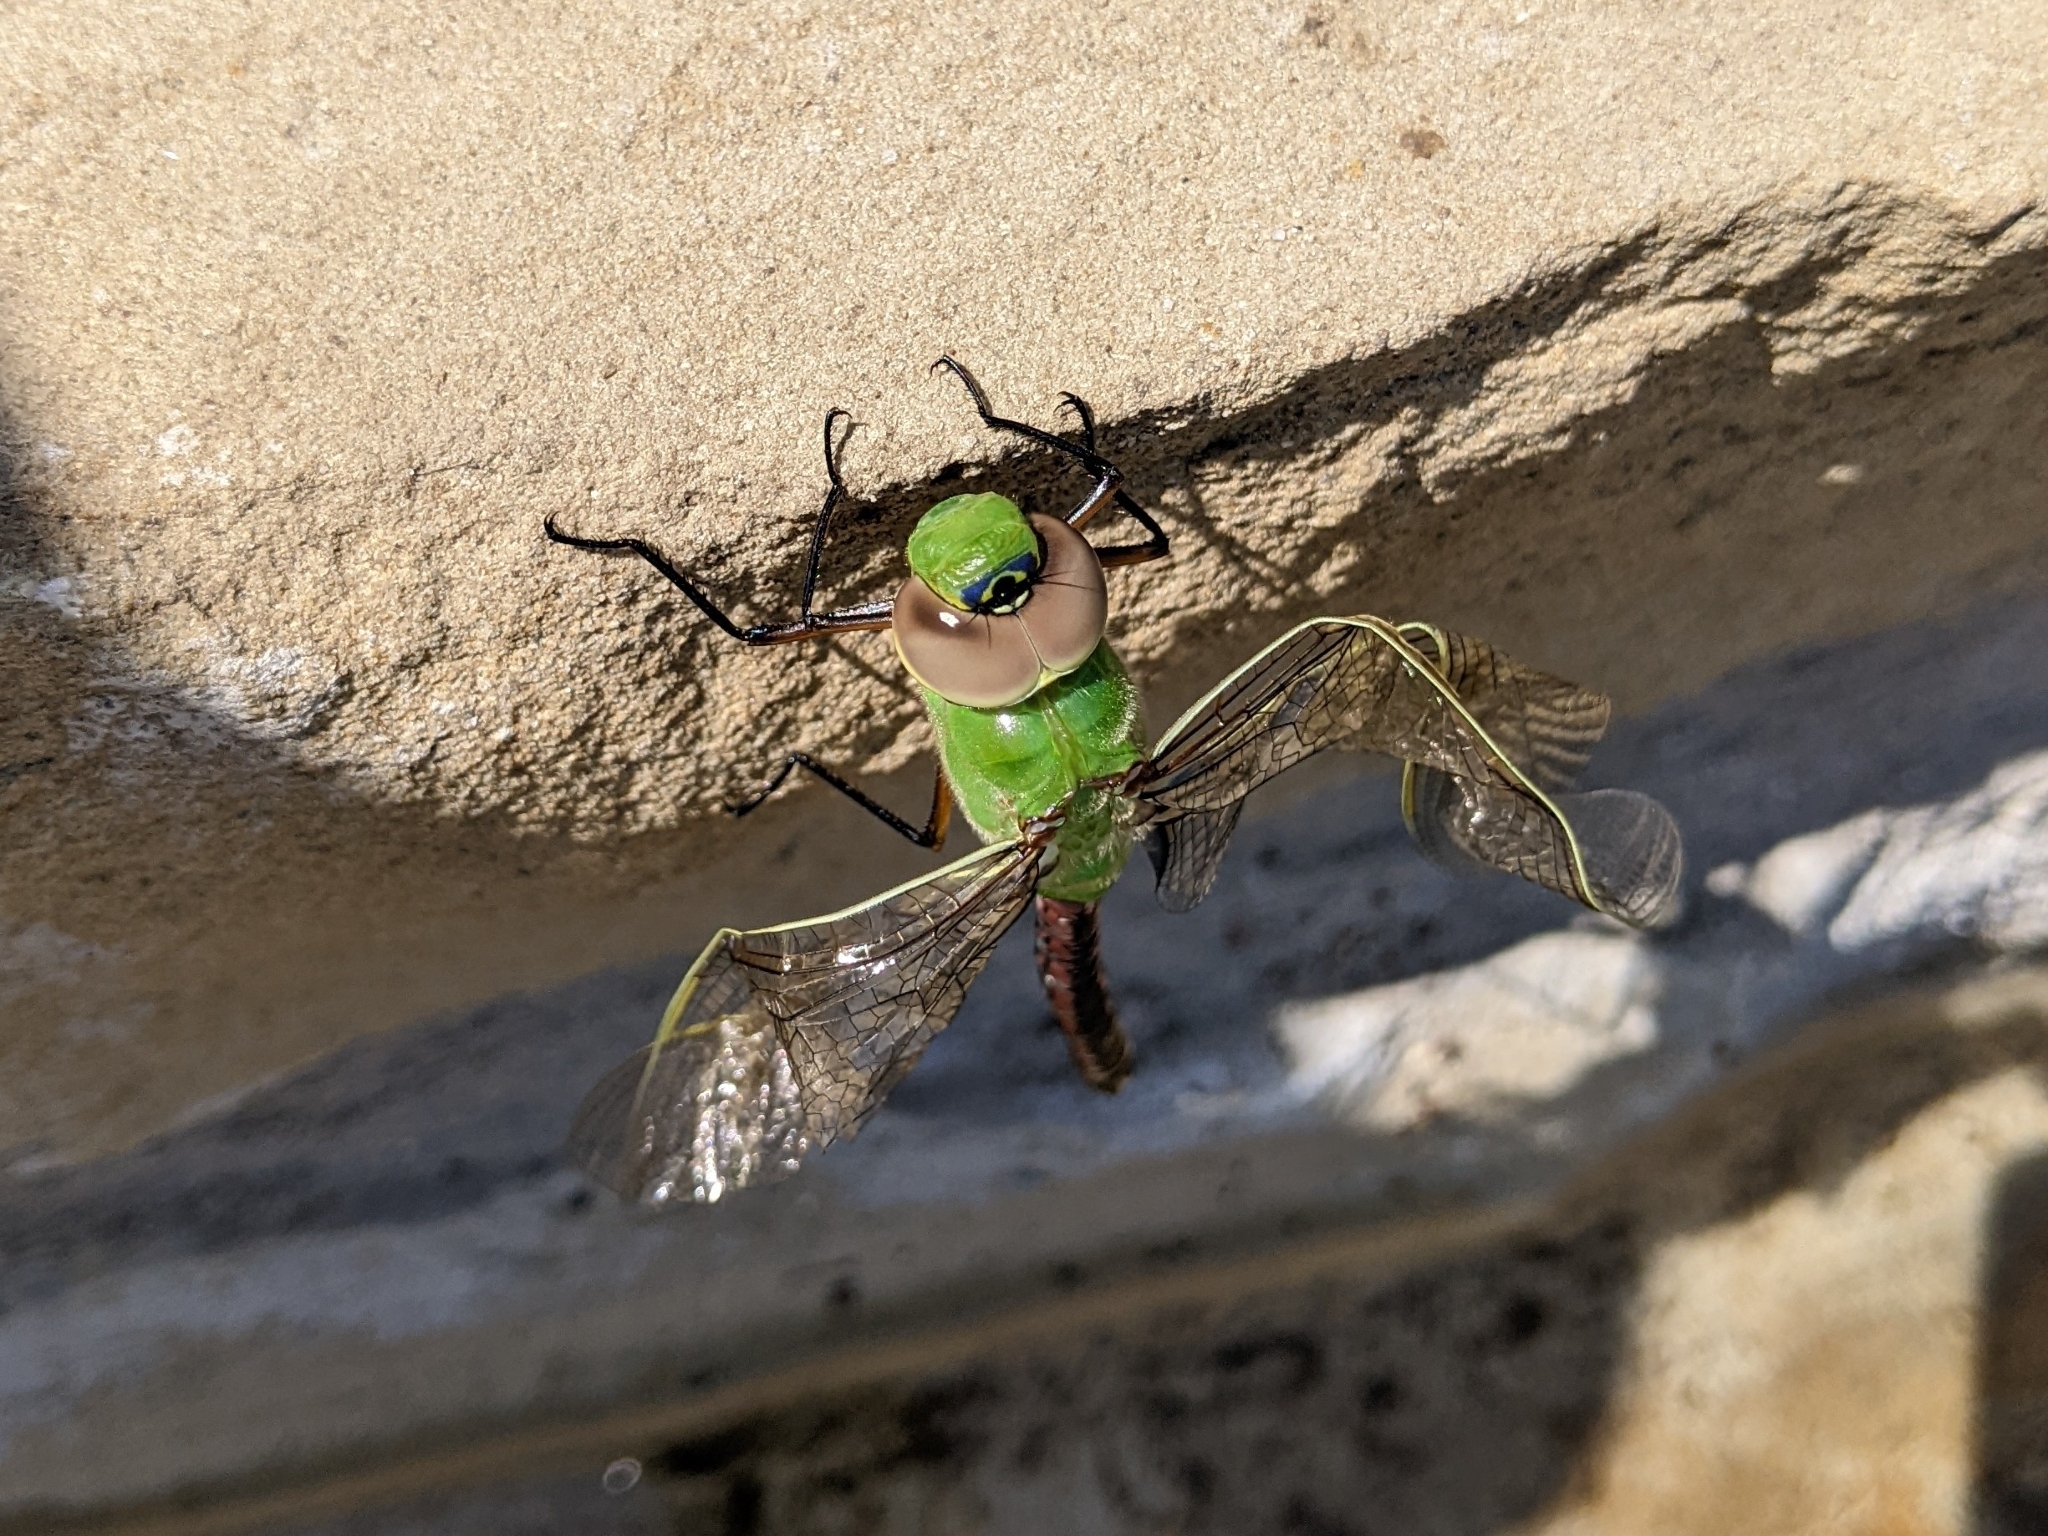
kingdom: Animalia
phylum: Arthropoda
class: Insecta
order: Odonata
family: Aeshnidae
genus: Anax
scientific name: Anax junius
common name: Common green darner
